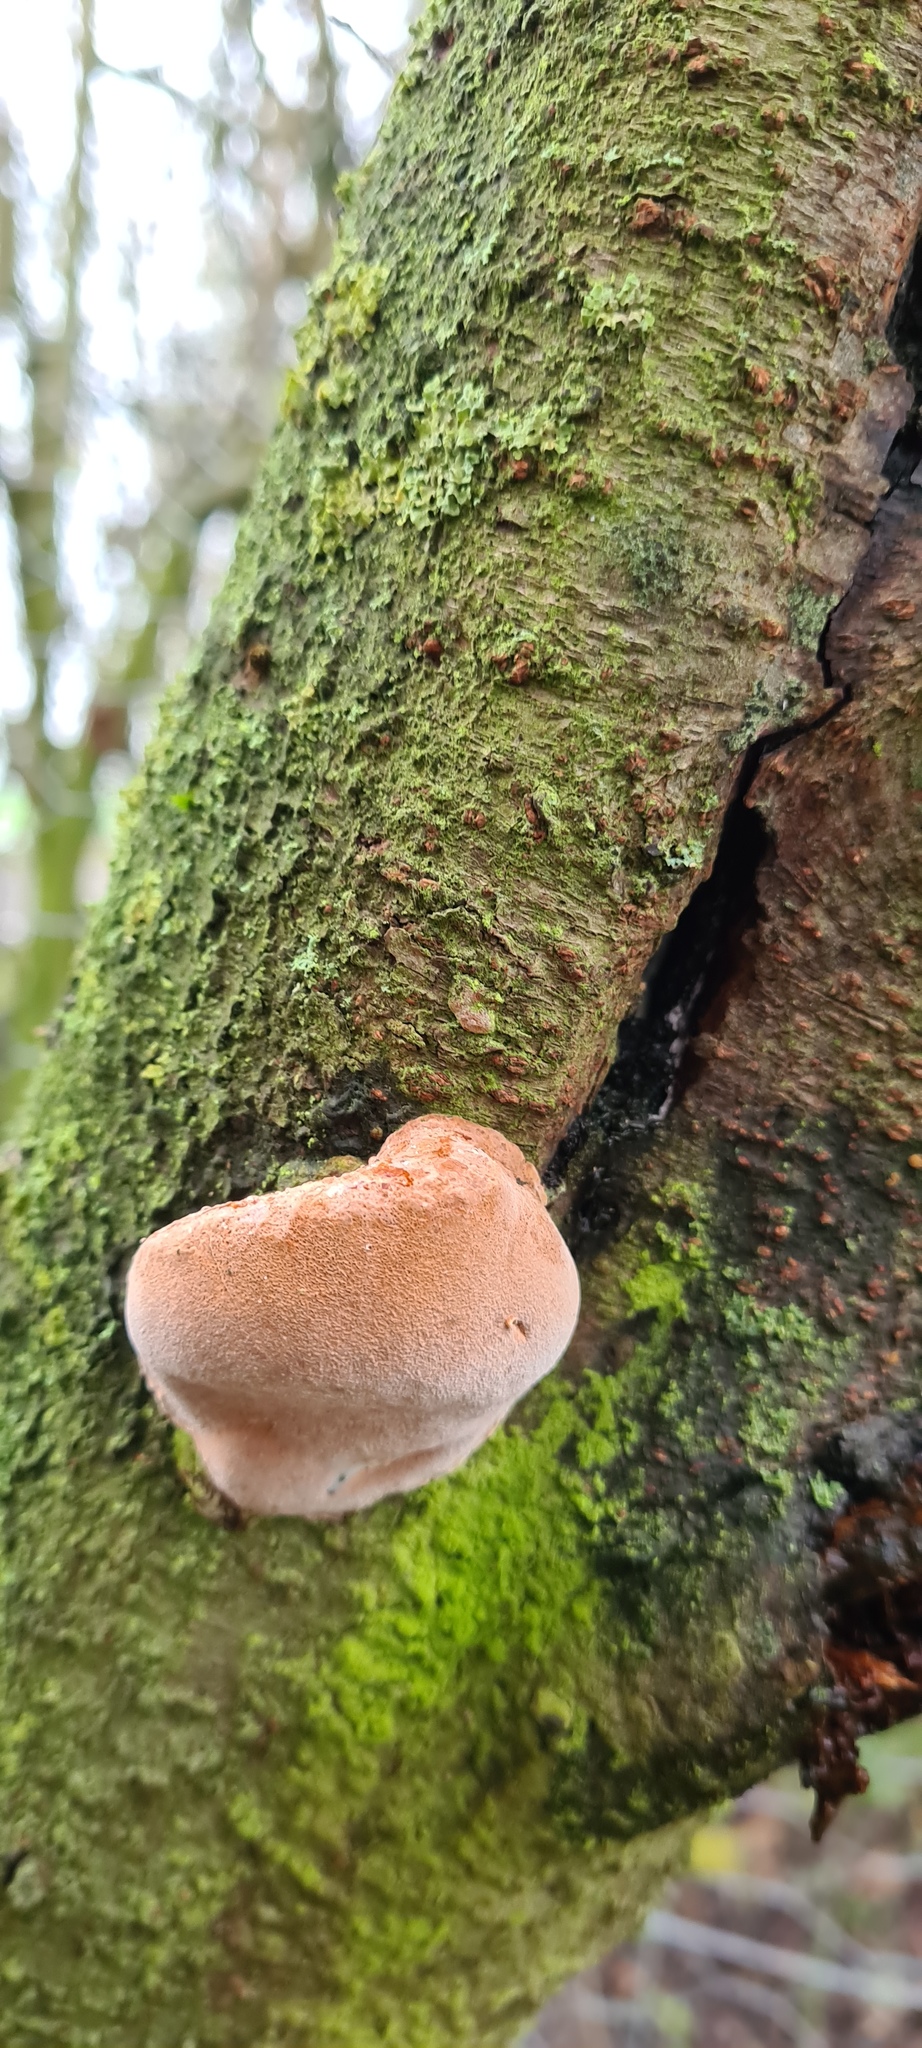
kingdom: Fungi
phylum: Basidiomycota
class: Agaricomycetes
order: Polyporales
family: Fomitopsidaceae
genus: Rhodofomes
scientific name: Rhodofomes roseus
